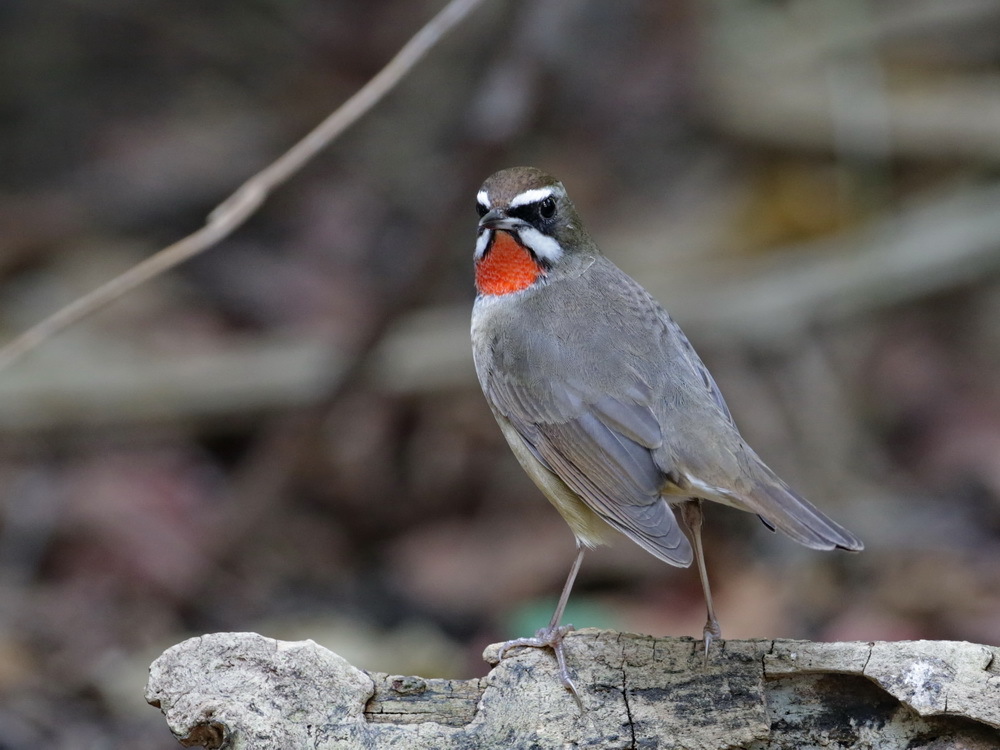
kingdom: Animalia
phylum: Chordata
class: Aves
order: Passeriformes
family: Muscicapidae
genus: Luscinia
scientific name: Luscinia calliope
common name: Siberian rubythroat
